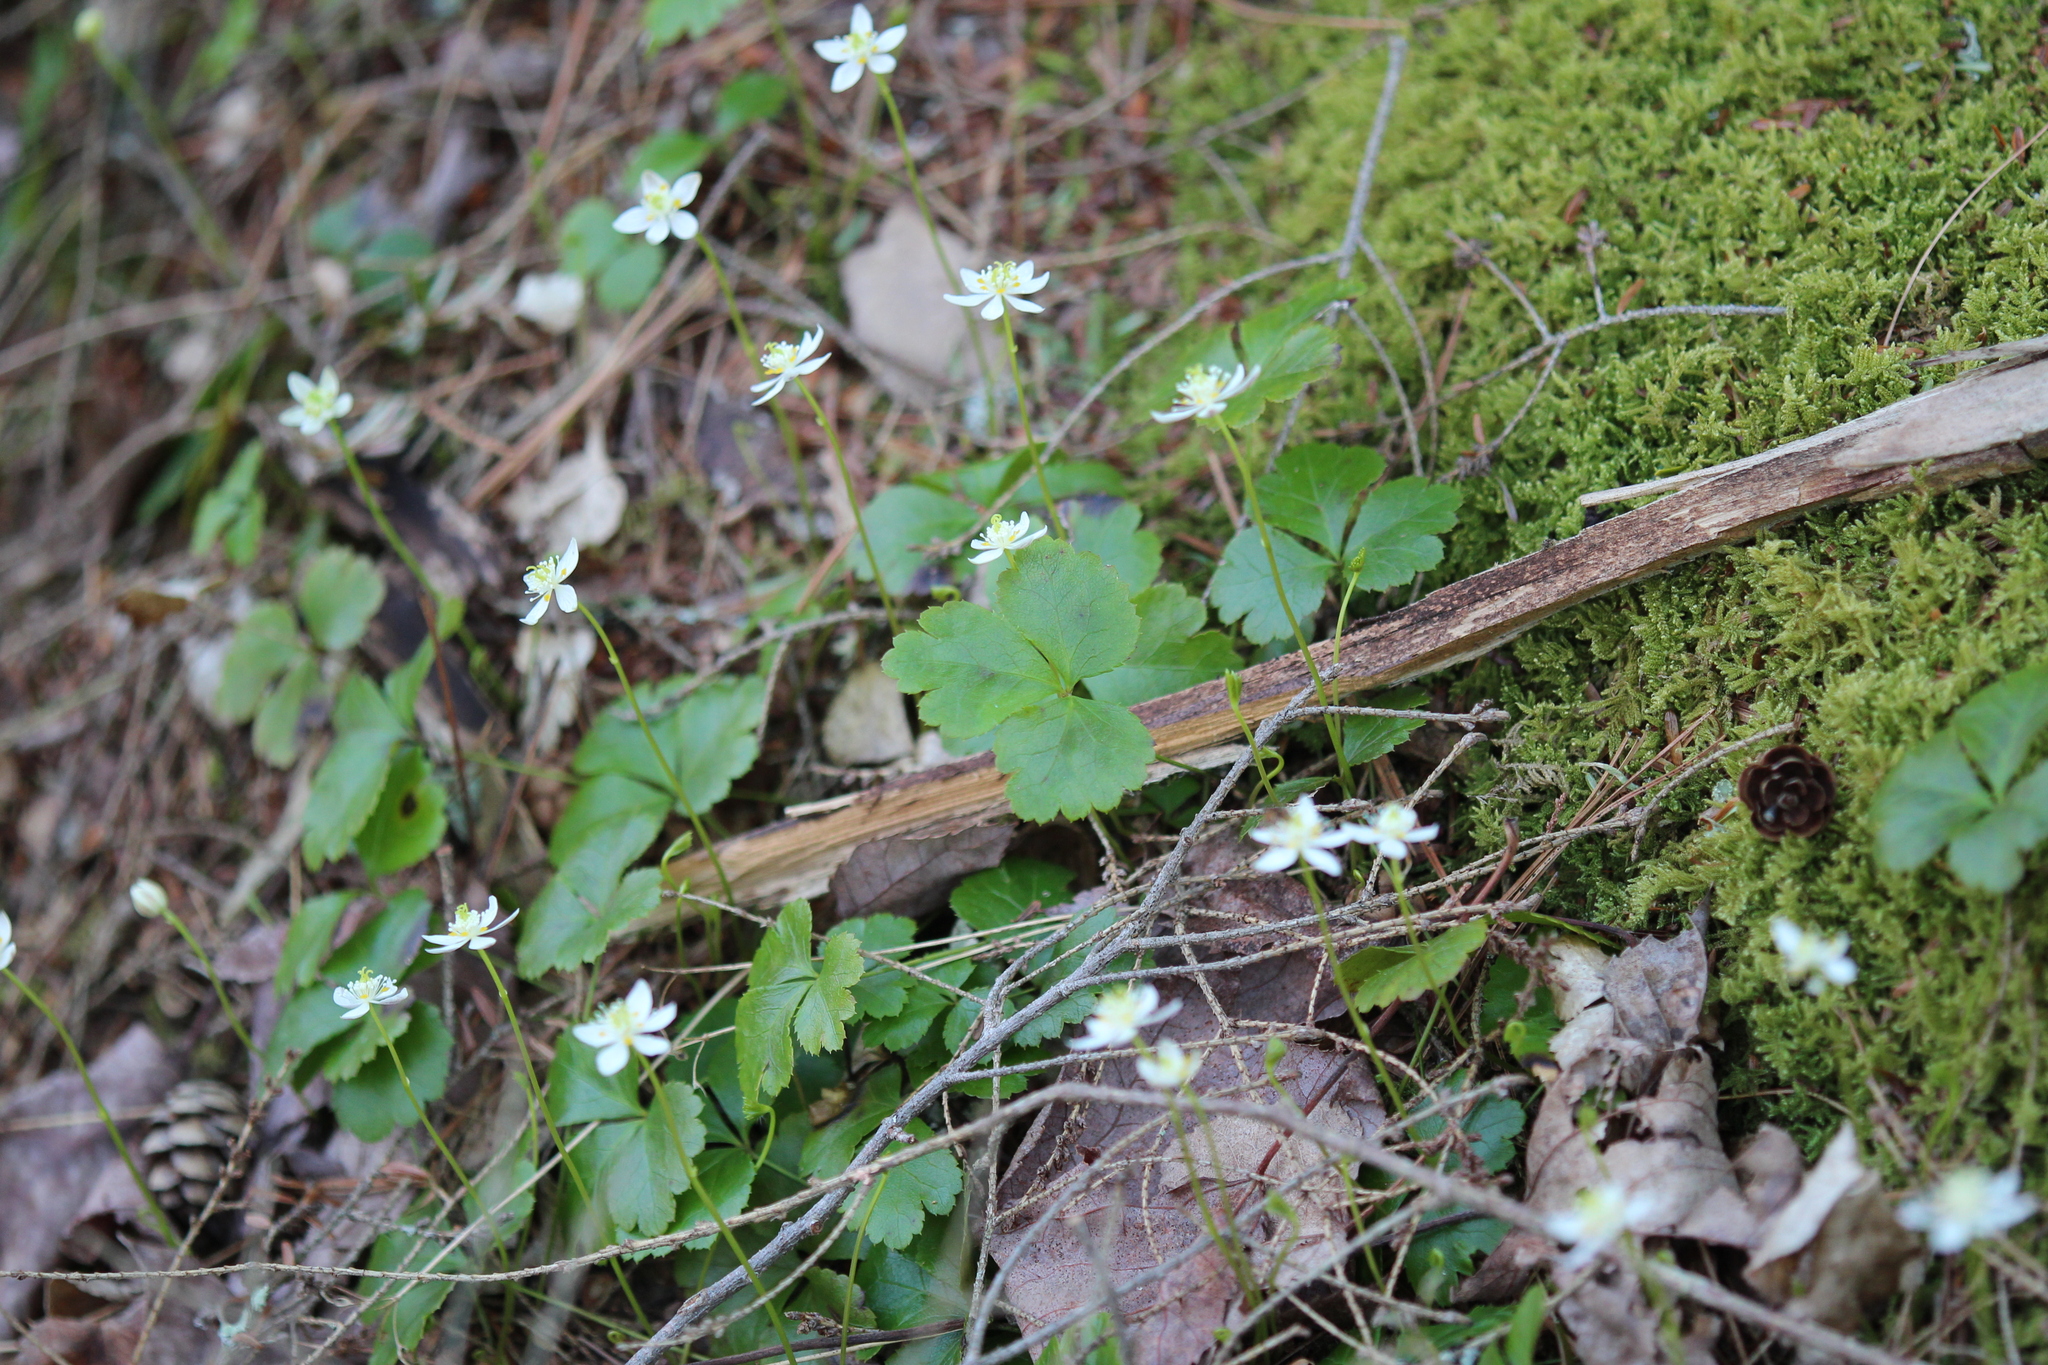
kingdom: Plantae
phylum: Tracheophyta
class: Magnoliopsida
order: Ranunculales
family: Ranunculaceae
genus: Coptis
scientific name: Coptis trifolia
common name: Canker-root
